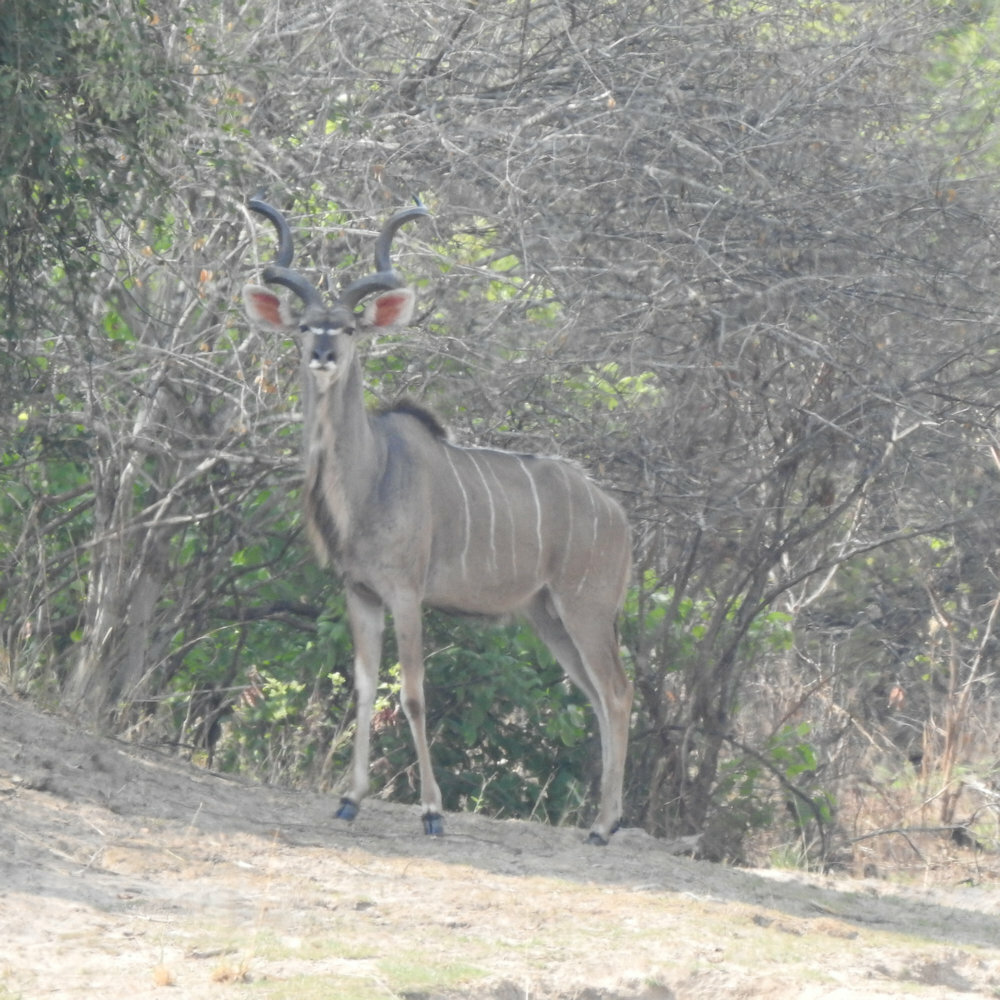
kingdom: Animalia
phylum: Chordata
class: Mammalia
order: Artiodactyla
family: Bovidae
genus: Tragelaphus
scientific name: Tragelaphus strepsiceros
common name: Greater kudu
